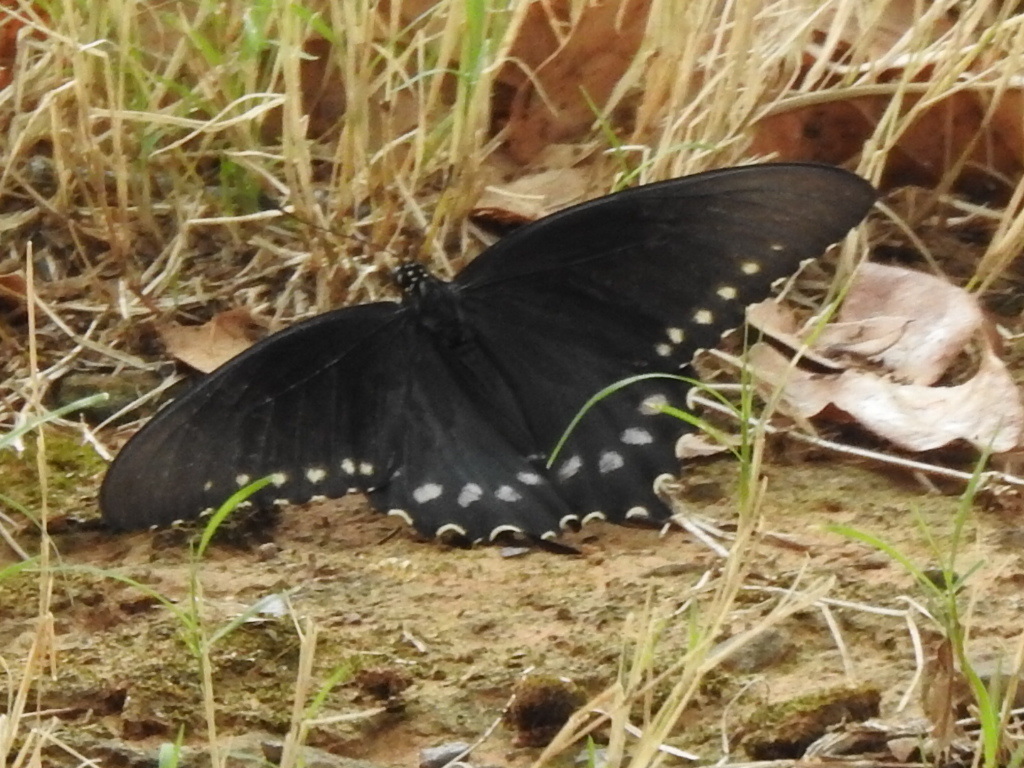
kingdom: Animalia
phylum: Arthropoda
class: Insecta
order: Lepidoptera
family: Papilionidae
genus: Battus
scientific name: Battus philenor
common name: Pipevine swallowtail
